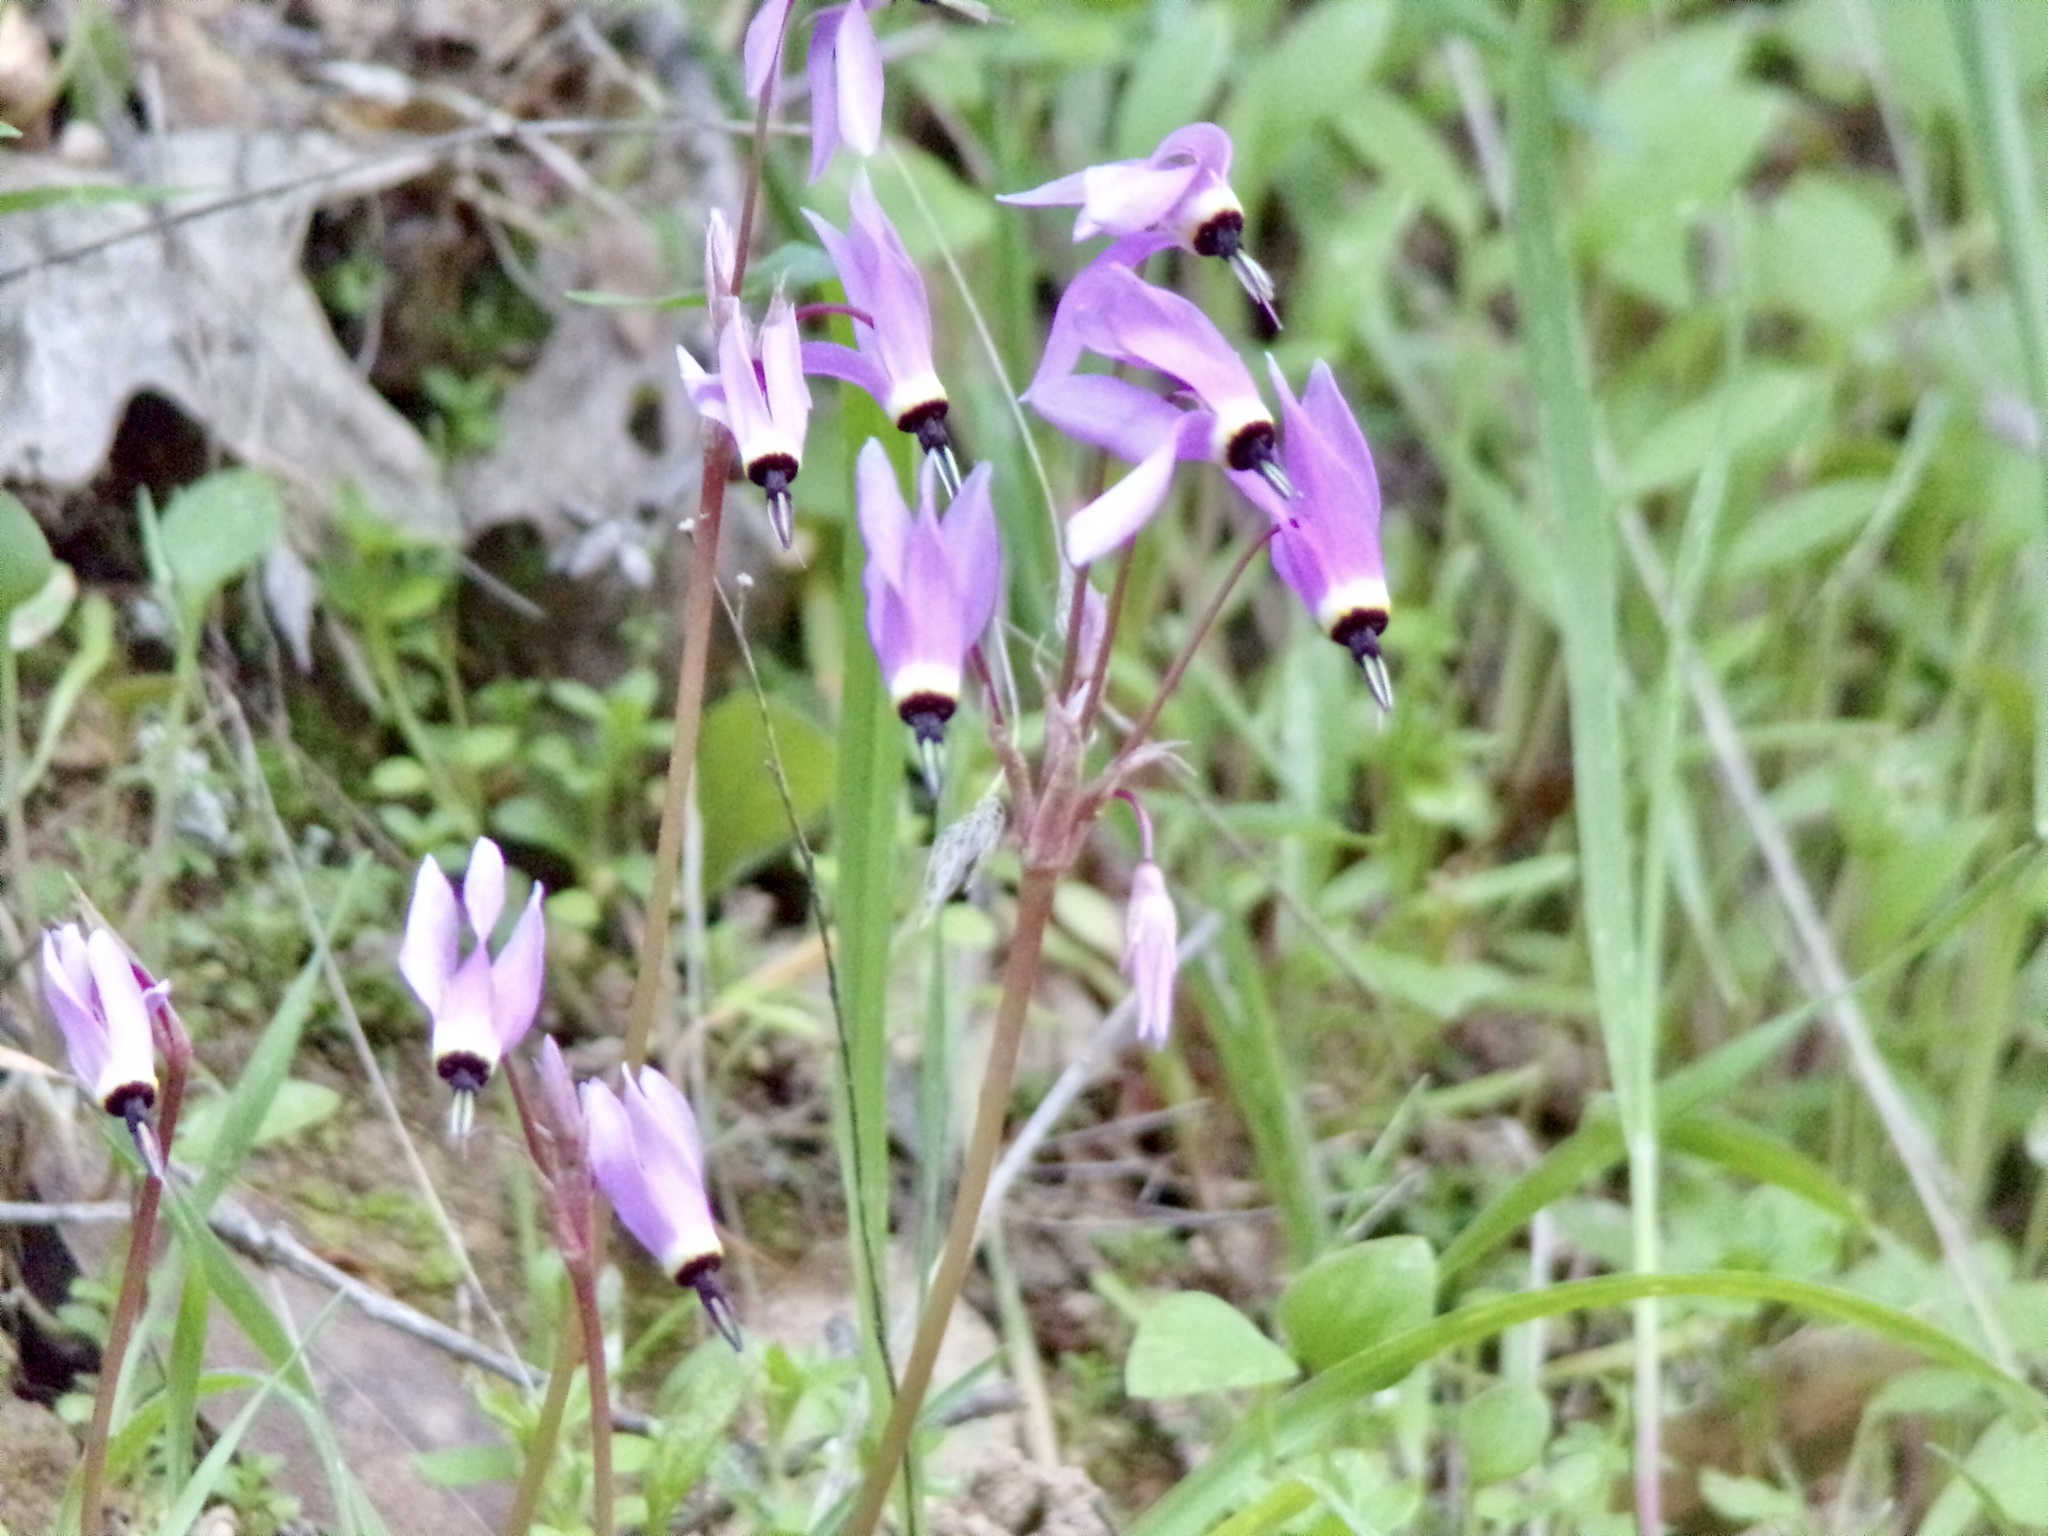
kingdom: Plantae
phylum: Tracheophyta
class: Magnoliopsida
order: Ericales
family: Primulaceae
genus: Dodecatheon
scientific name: Dodecatheon hendersonii
